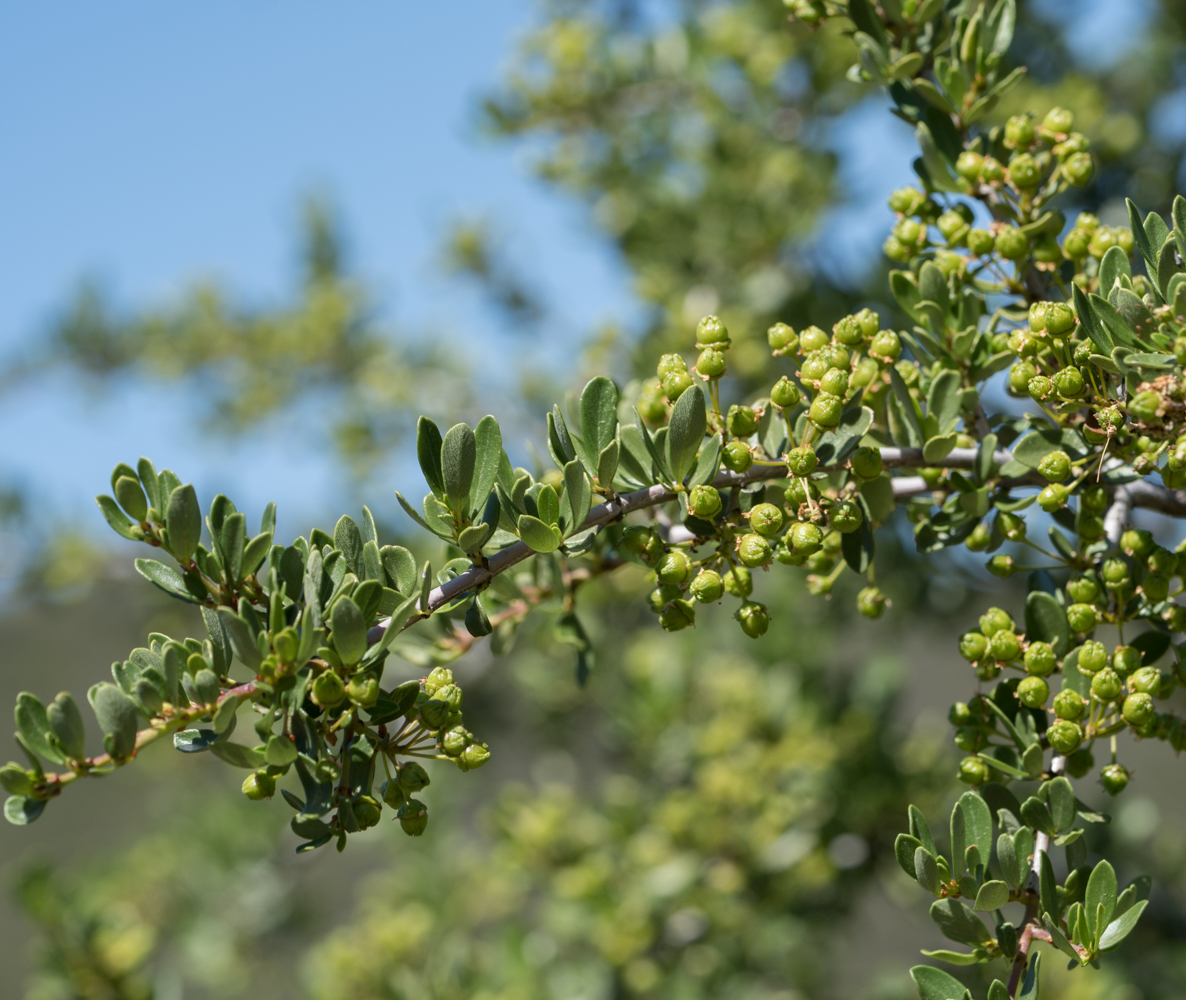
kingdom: Plantae
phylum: Tracheophyta
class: Magnoliopsida
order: Rosales
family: Rhamnaceae
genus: Ceanothus
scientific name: Ceanothus cuneatus
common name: Cuneate ceanothus
